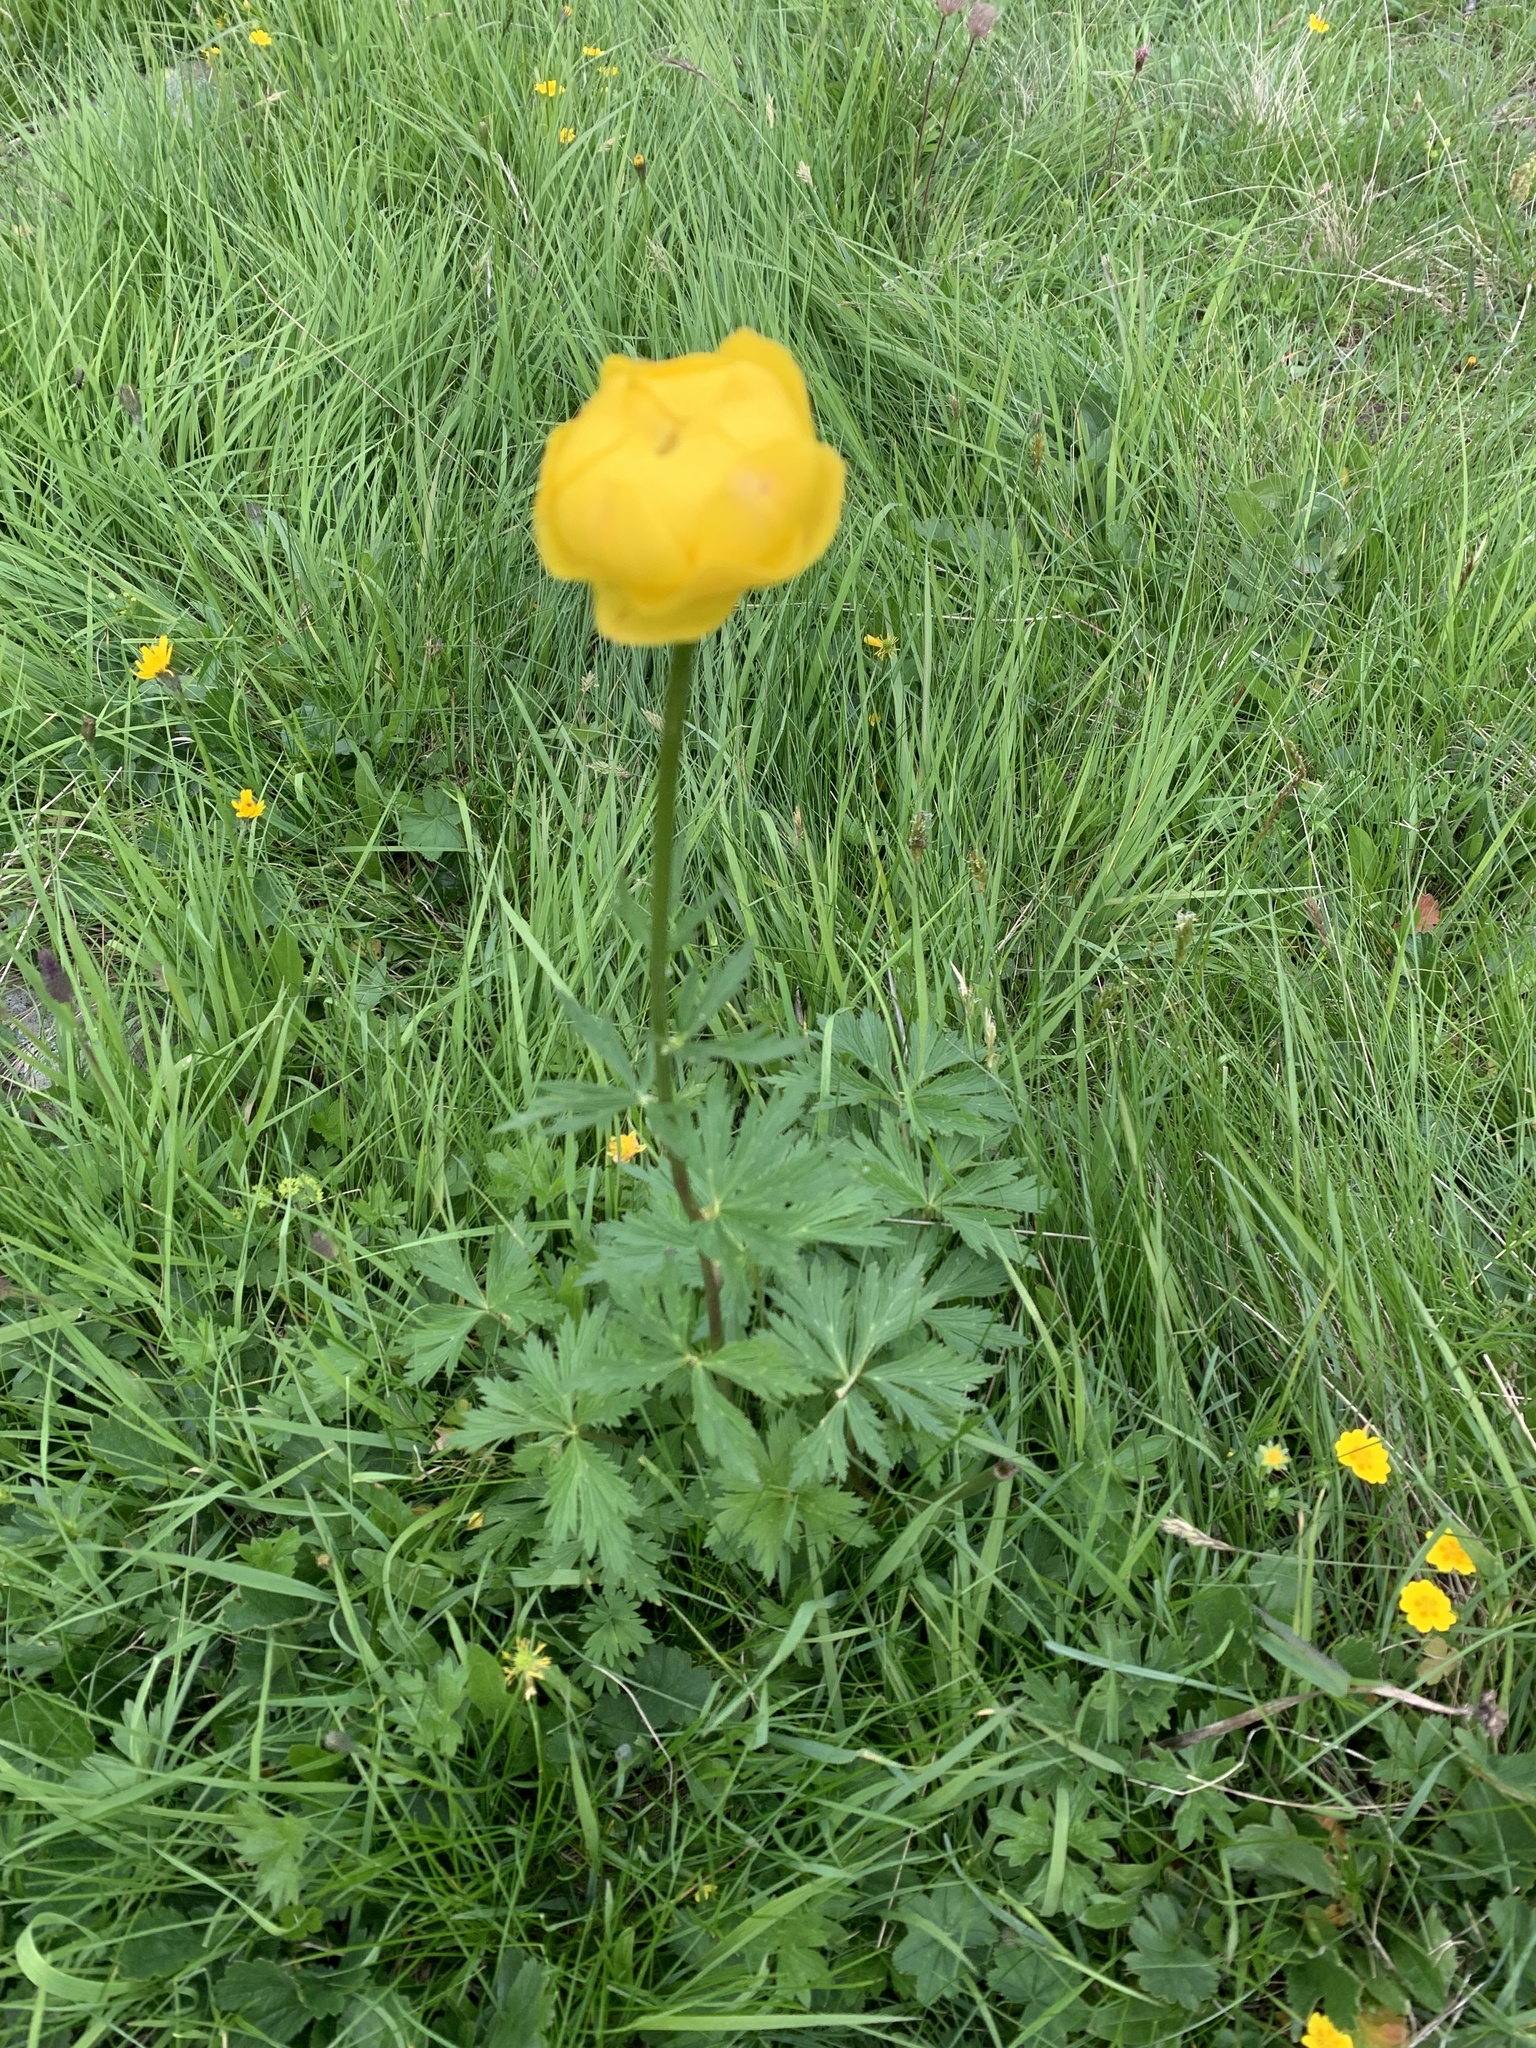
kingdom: Plantae
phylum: Tracheophyta
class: Magnoliopsida
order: Ranunculales
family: Ranunculaceae
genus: Trollius
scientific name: Trollius europaeus
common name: European globeflower
